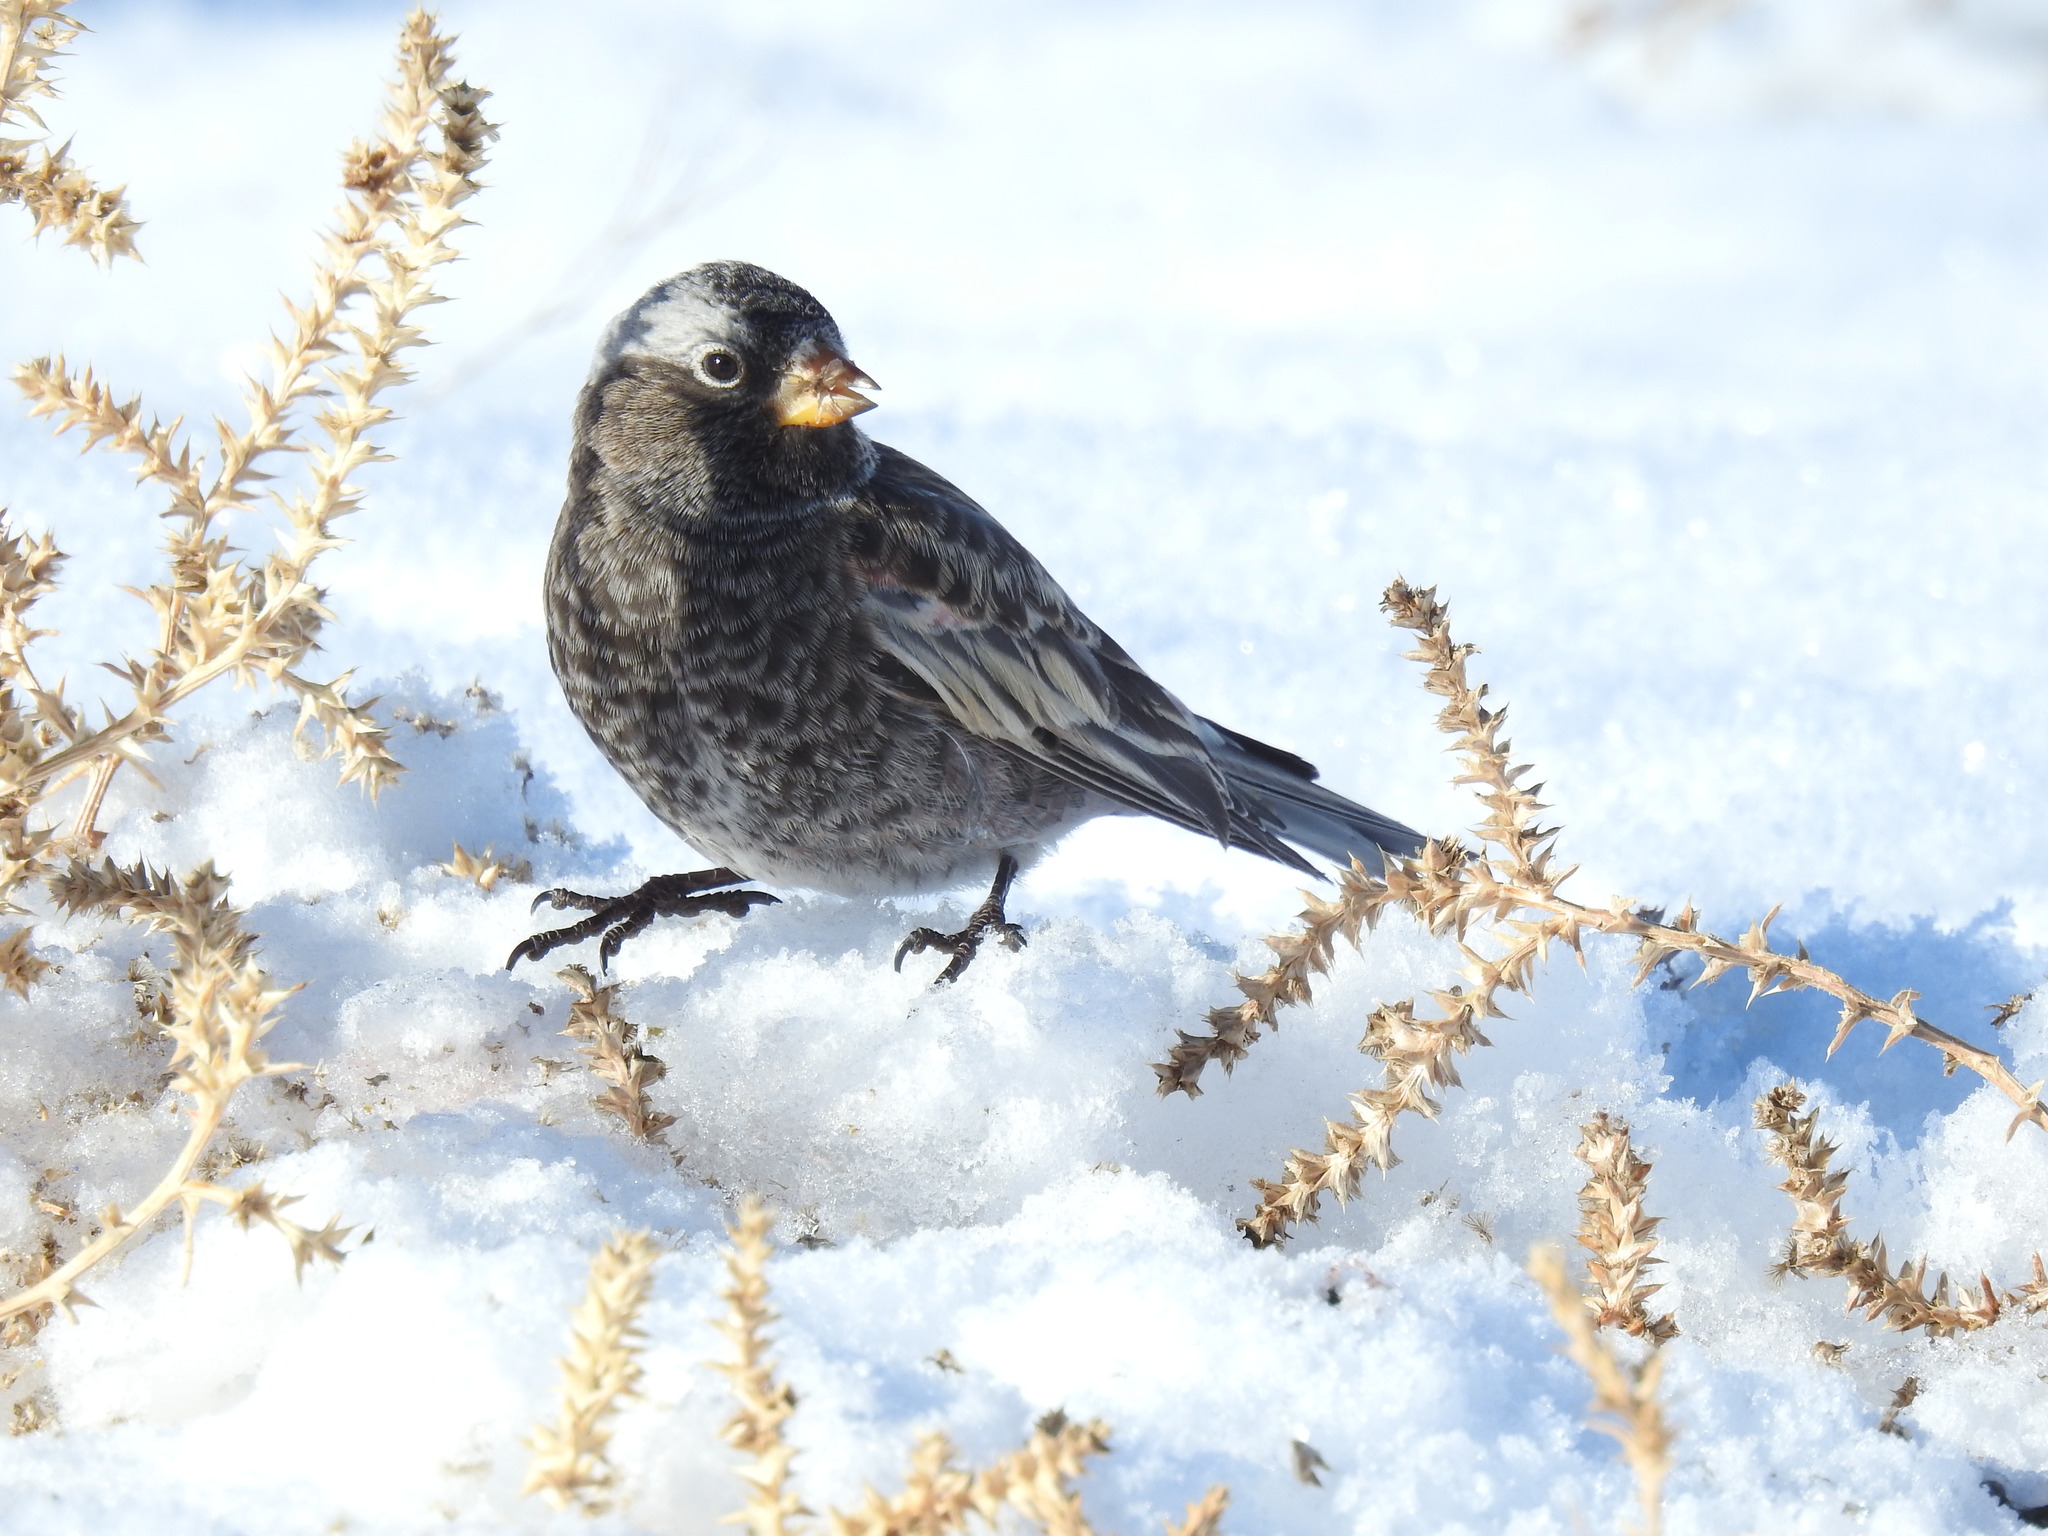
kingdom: Animalia
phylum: Chordata
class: Aves
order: Passeriformes
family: Fringillidae
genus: Leucosticte
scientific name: Leucosticte atrata
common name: Black rosy-finch
